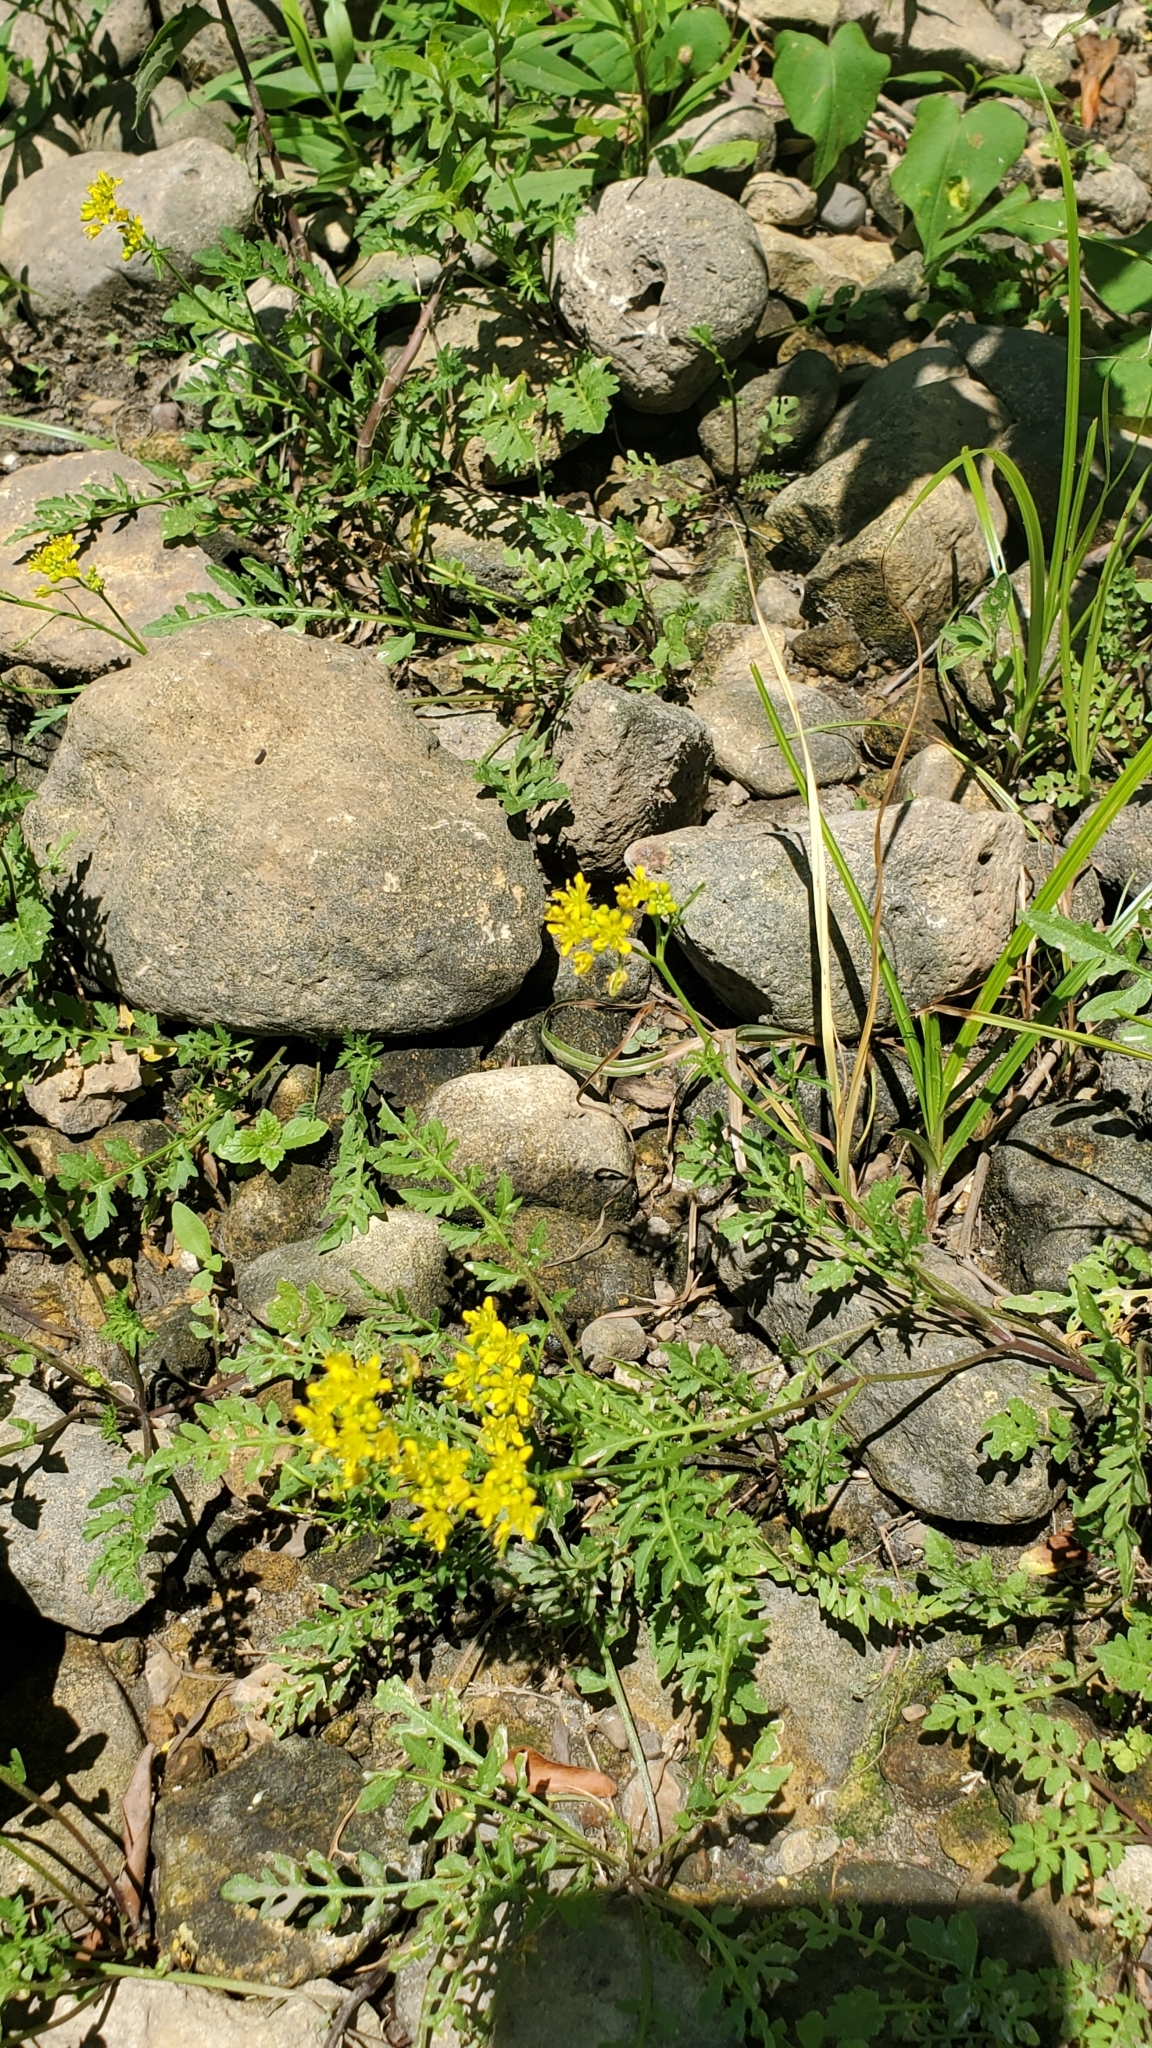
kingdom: Plantae
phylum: Tracheophyta
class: Magnoliopsida
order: Brassicales
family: Brassicaceae
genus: Rorippa
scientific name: Rorippa sylvestris
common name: Creeping yellowcress
